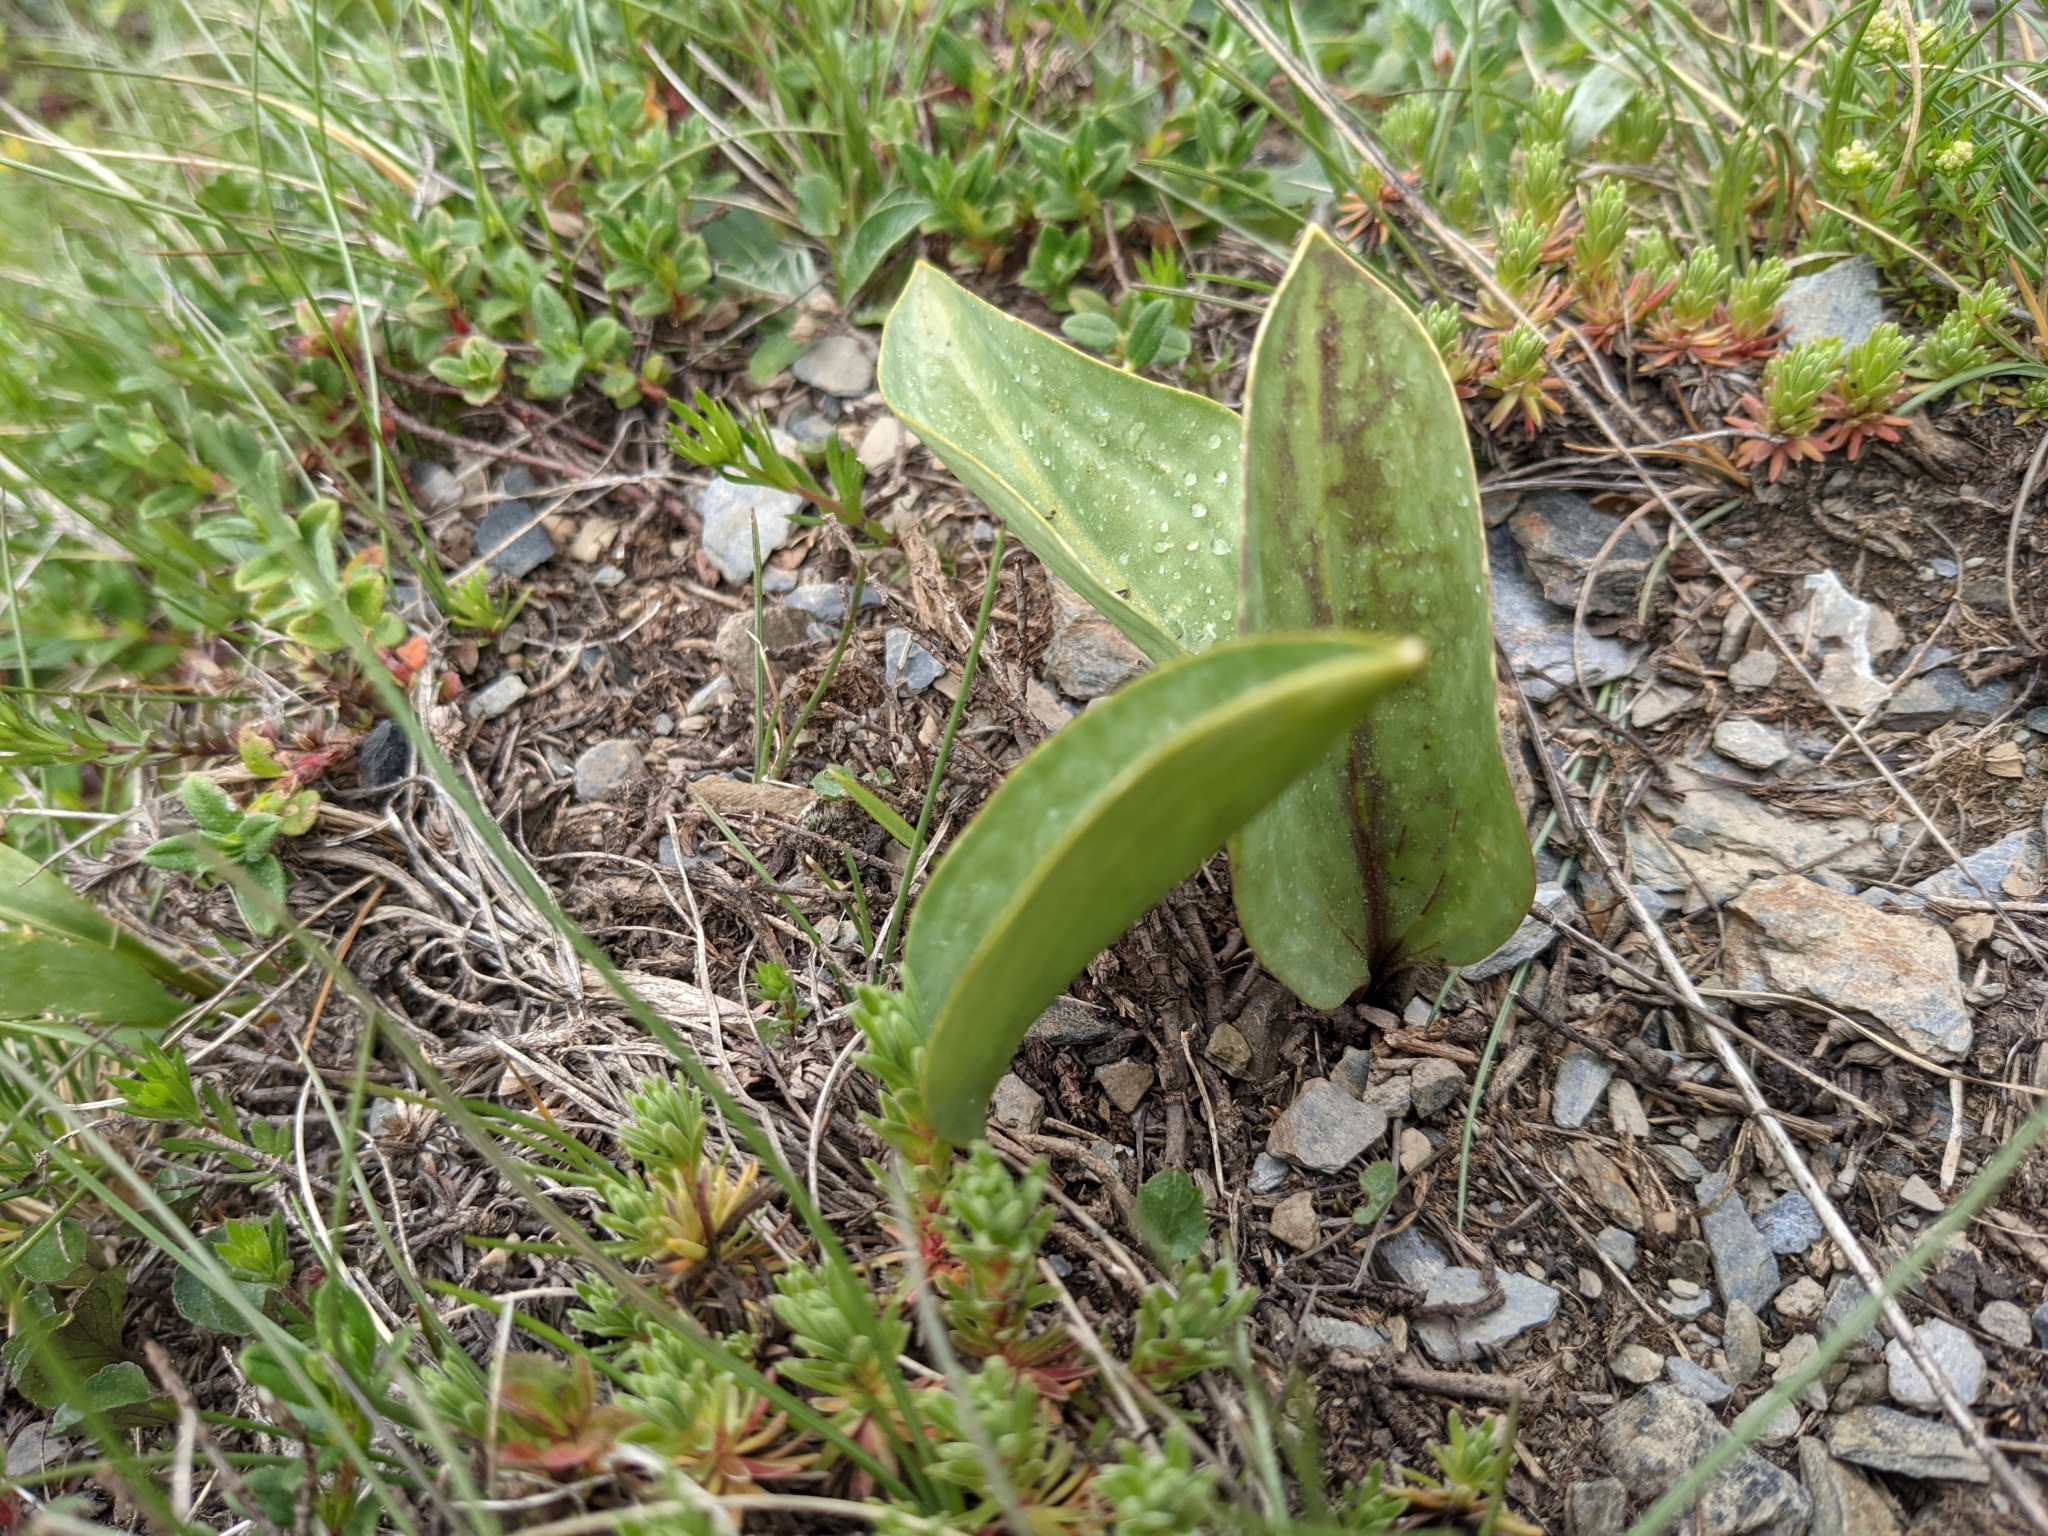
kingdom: Plantae
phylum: Tracheophyta
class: Liliopsida
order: Liliales
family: Liliaceae
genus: Erythronium
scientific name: Erythronium dens-canis
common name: Dog's-tooth-violet
